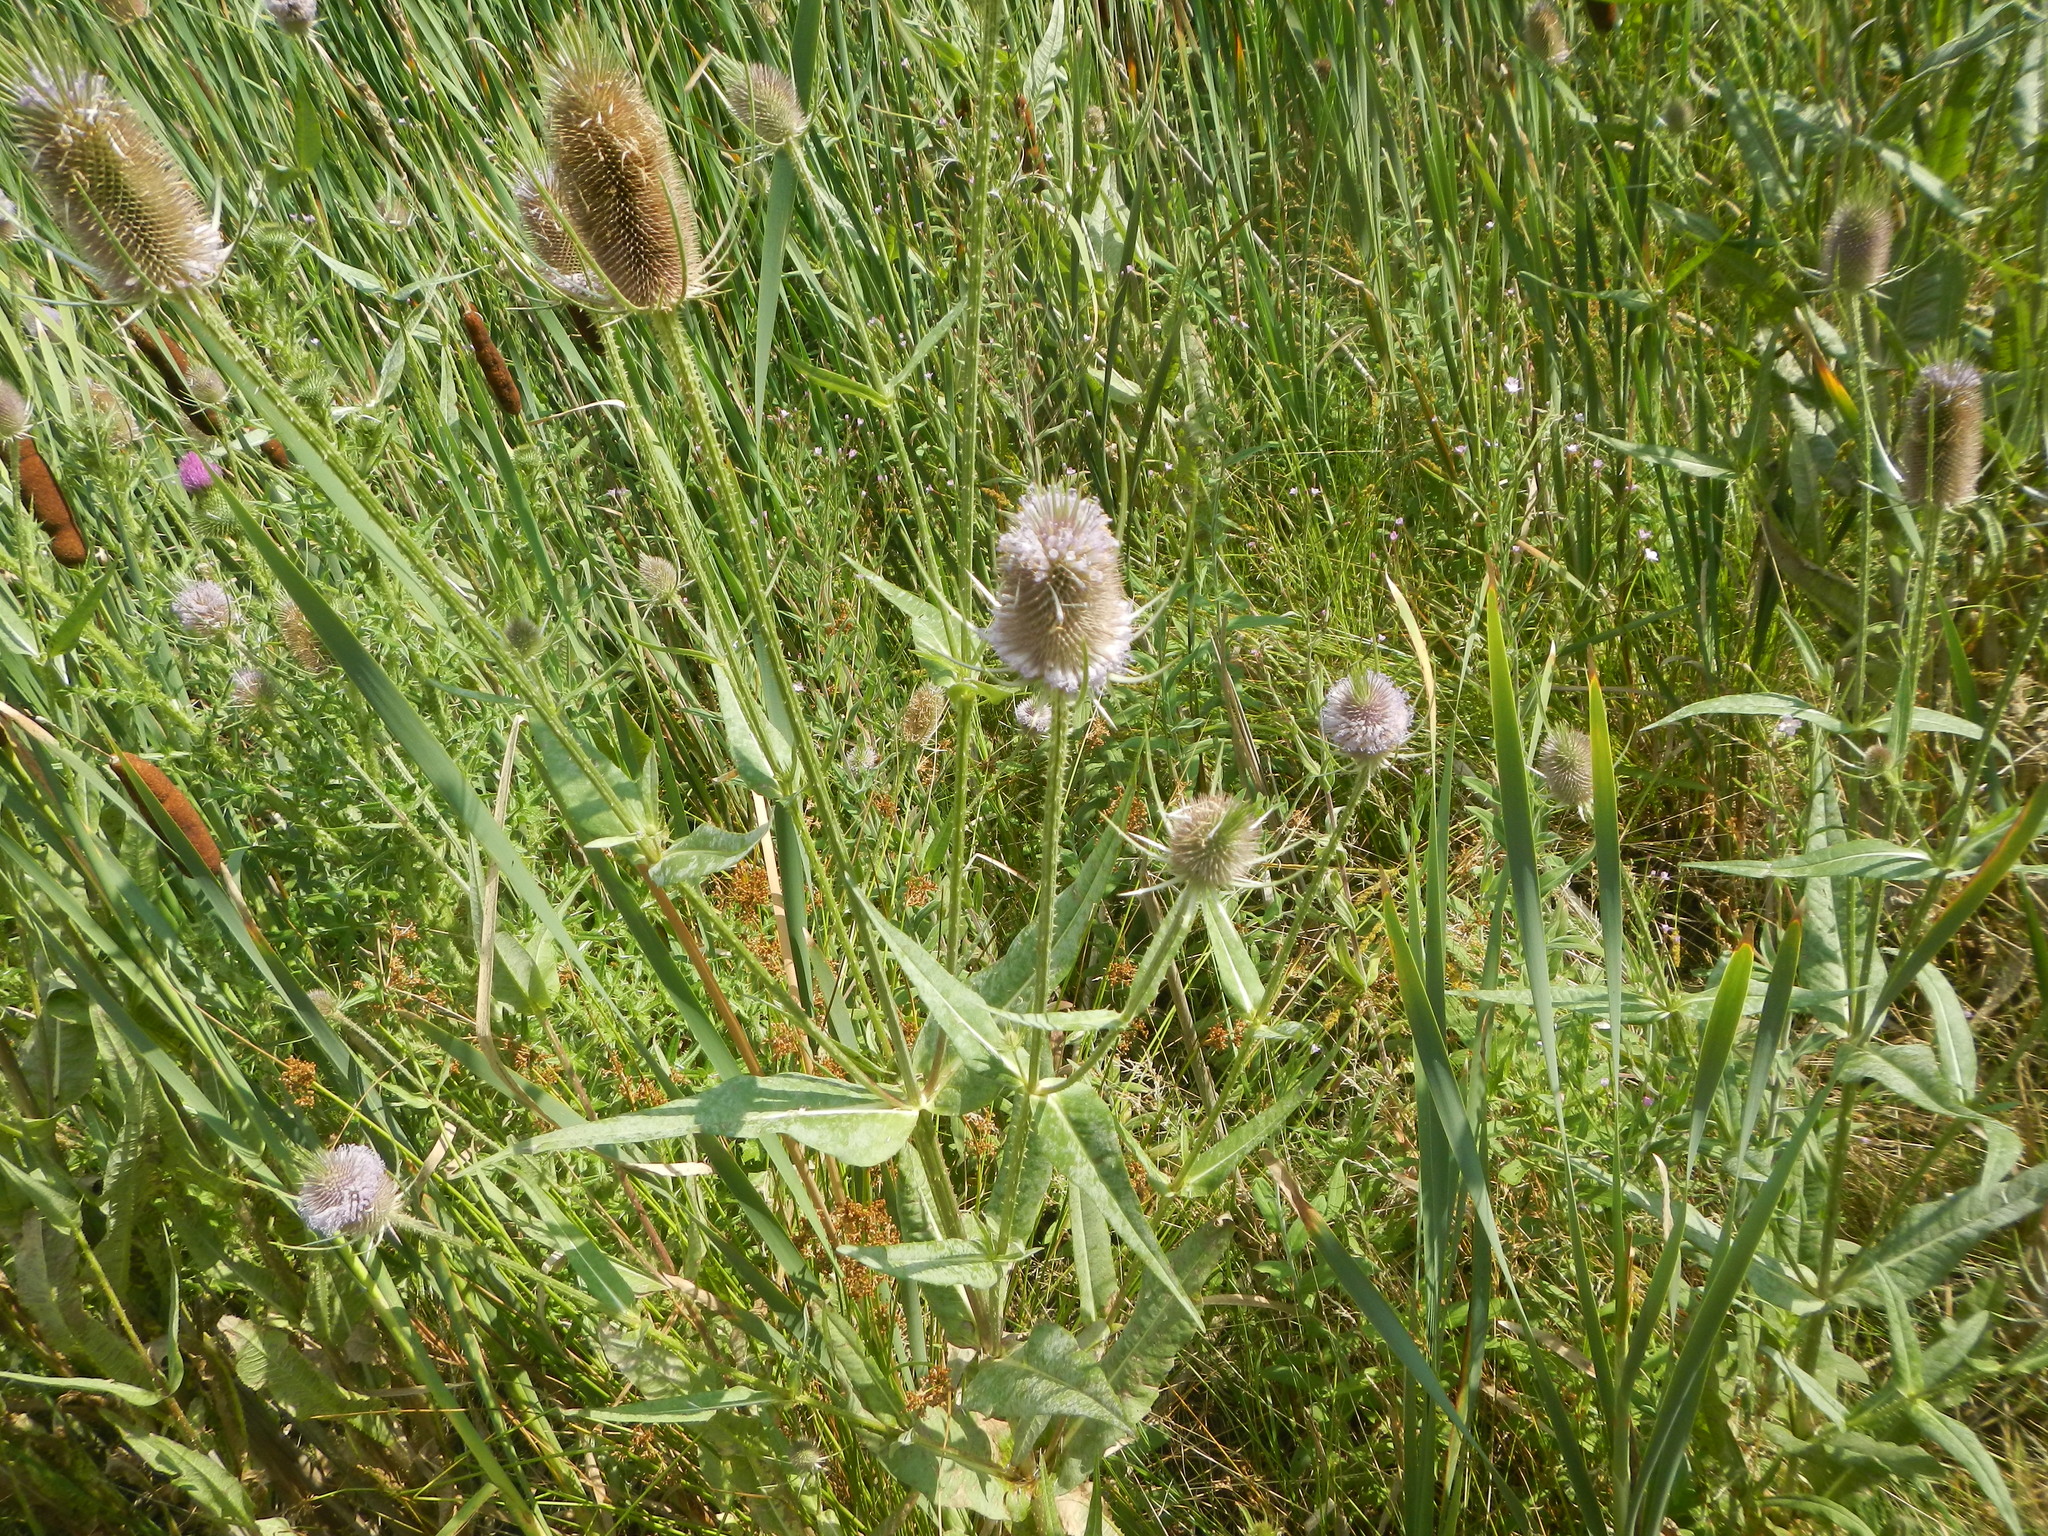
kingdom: Plantae
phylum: Tracheophyta
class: Magnoliopsida
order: Dipsacales
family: Caprifoliaceae
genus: Dipsacus
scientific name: Dipsacus fullonum
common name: Teasel
